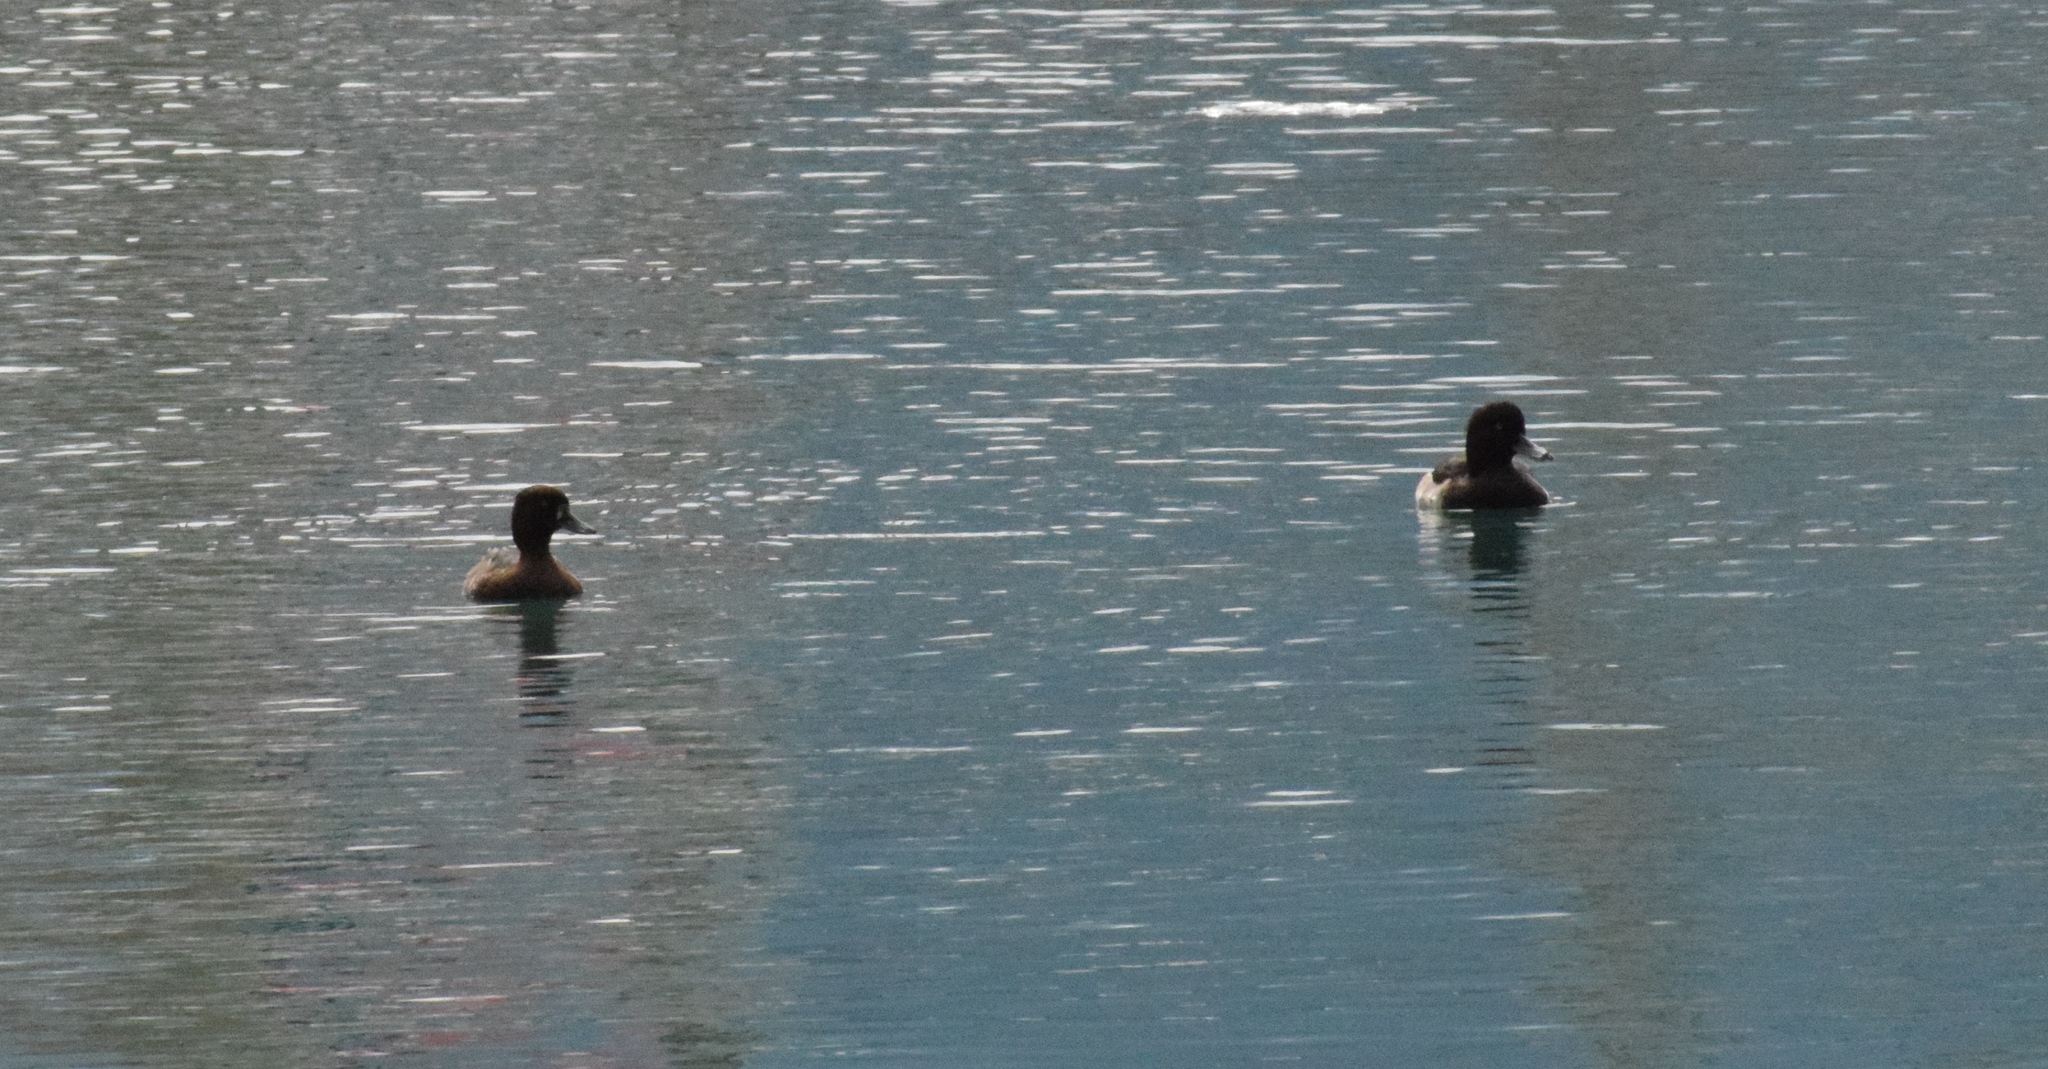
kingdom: Animalia
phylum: Chordata
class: Aves
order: Anseriformes
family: Anatidae
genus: Aythya
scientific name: Aythya fuligula
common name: Tufted duck
